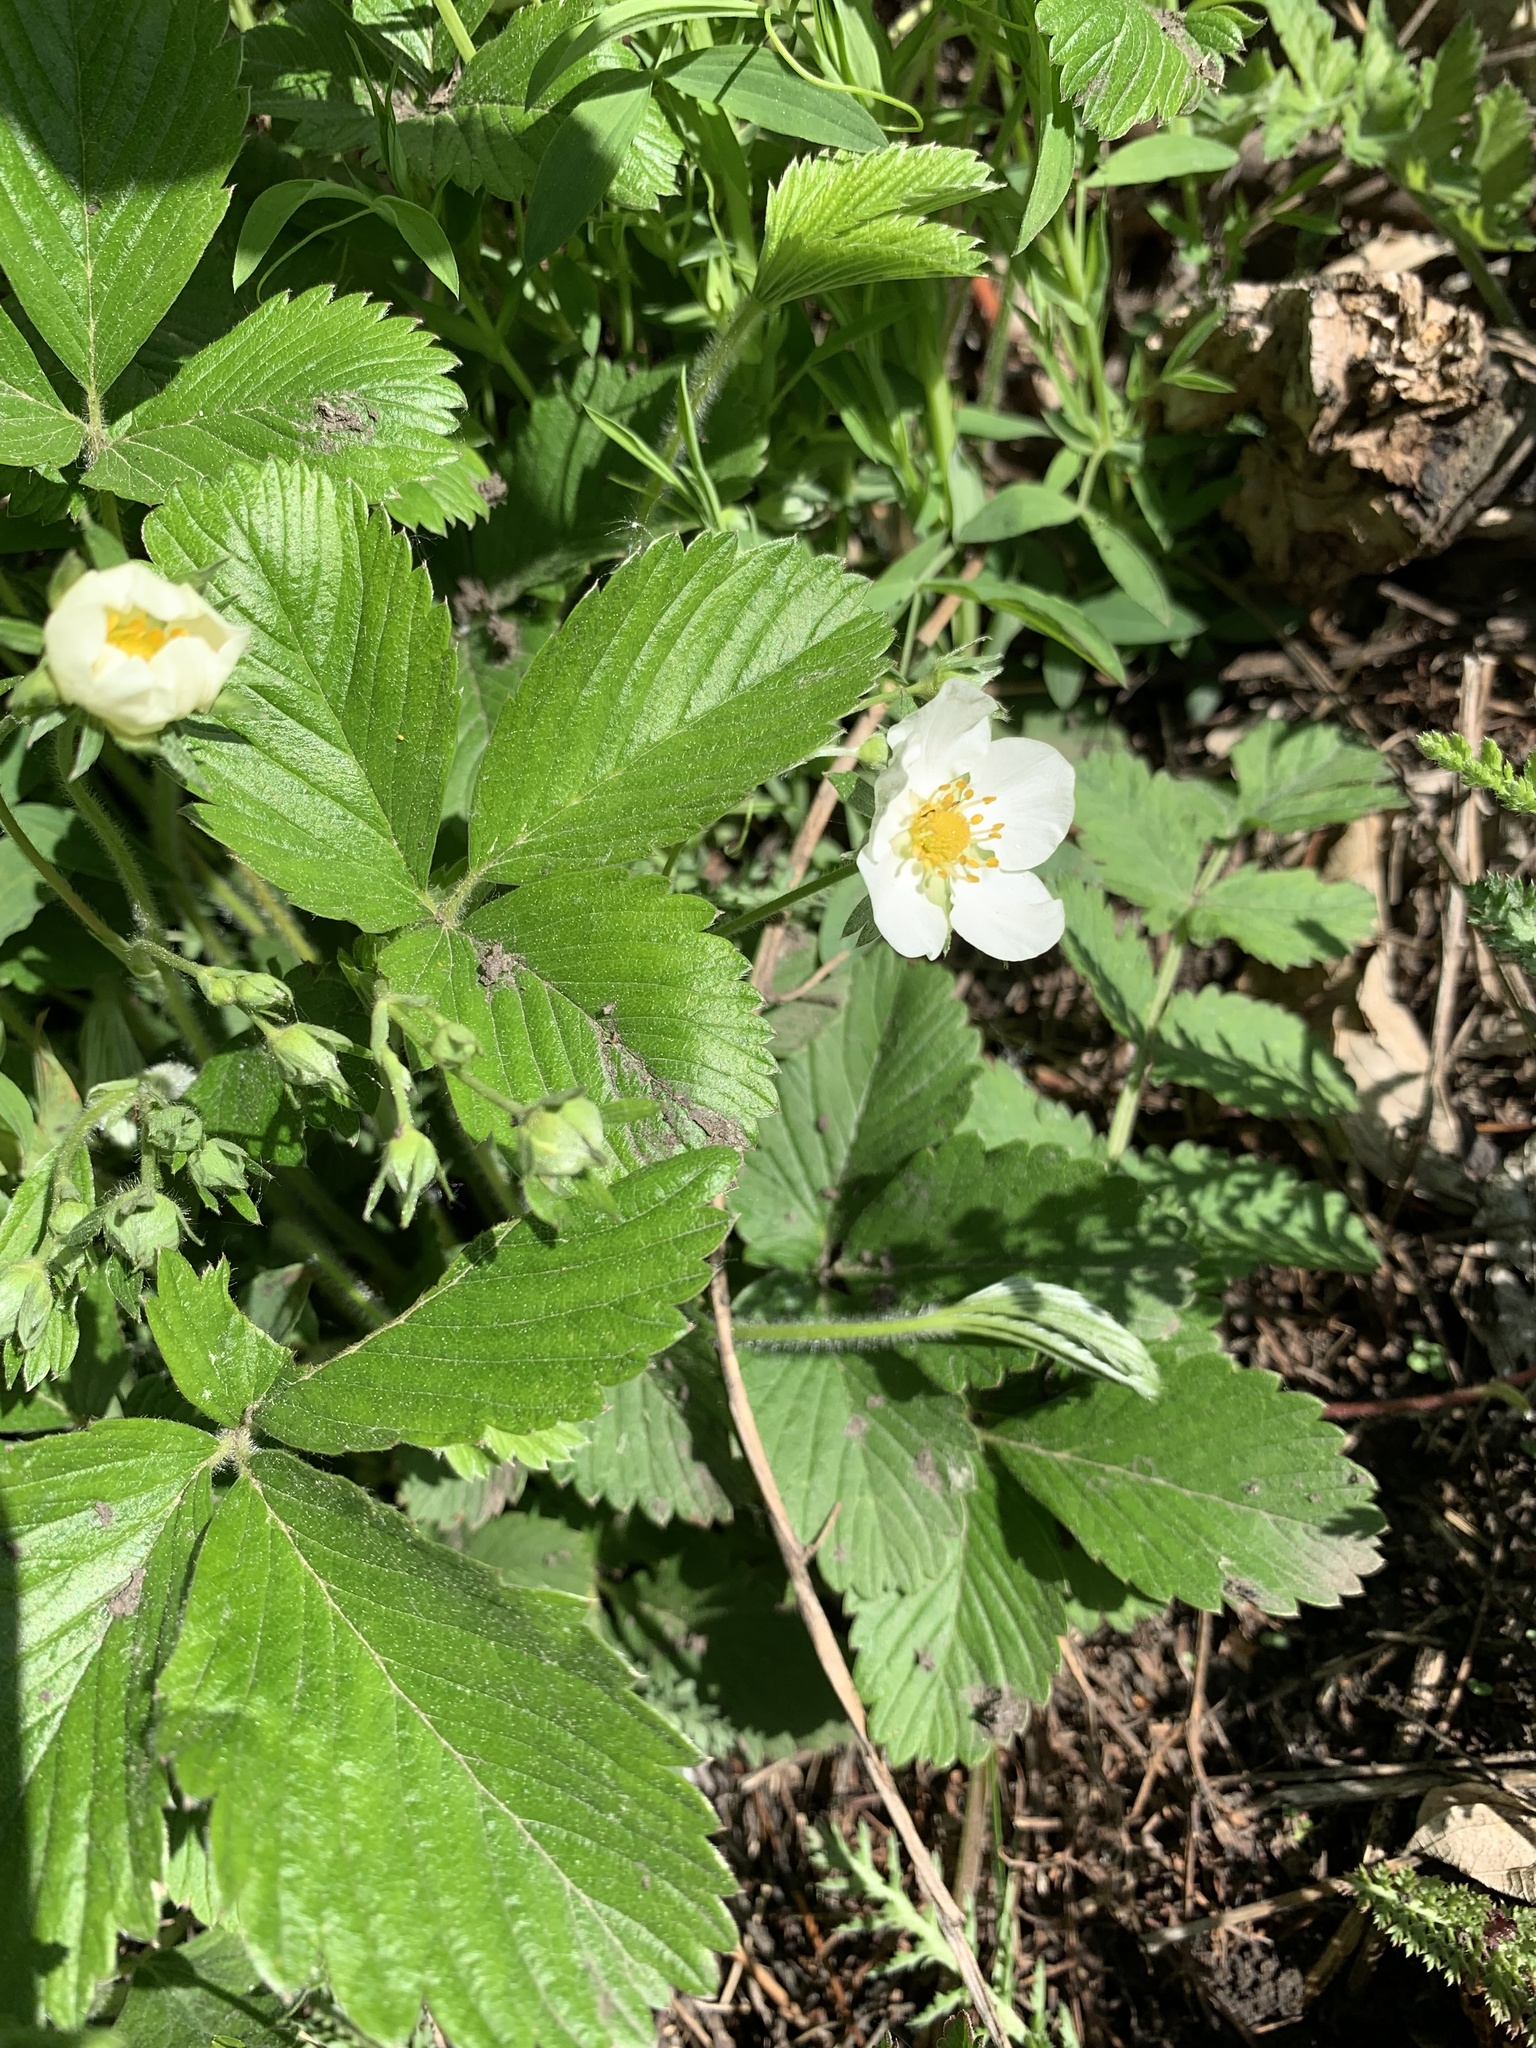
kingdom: Plantae
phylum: Tracheophyta
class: Magnoliopsida
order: Rosales
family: Rosaceae
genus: Fragaria
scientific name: Fragaria viridis
